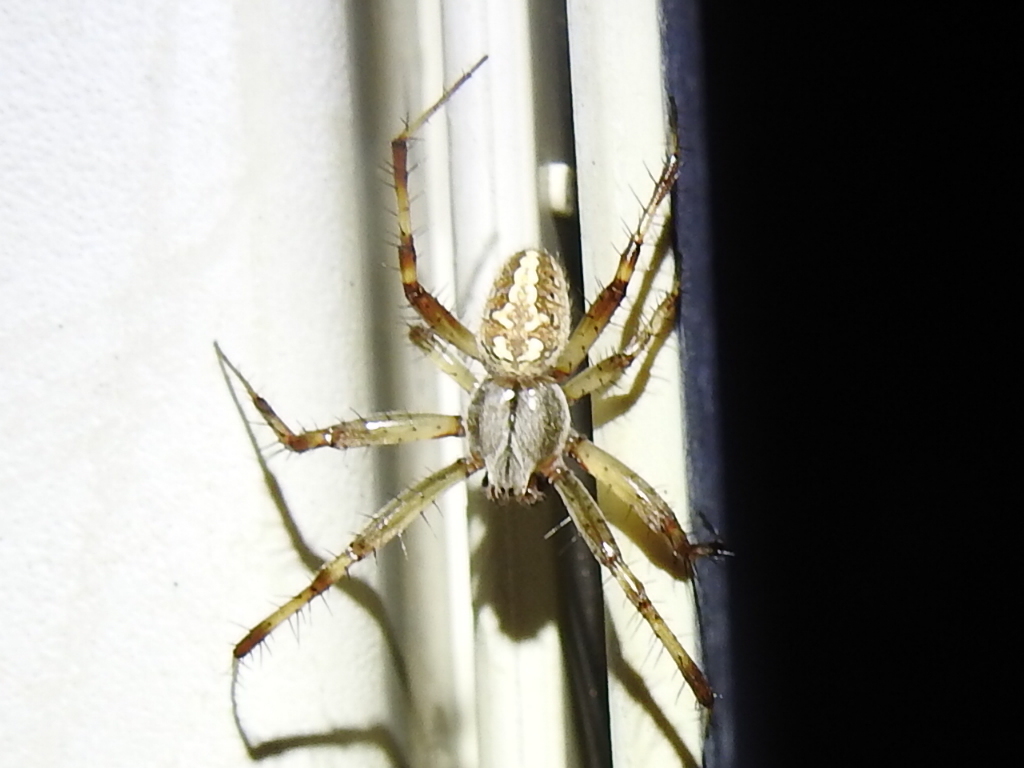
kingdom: Animalia
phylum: Arthropoda
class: Arachnida
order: Araneae
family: Araneidae
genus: Neoscona
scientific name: Neoscona oaxacensis
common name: Orb weavers
